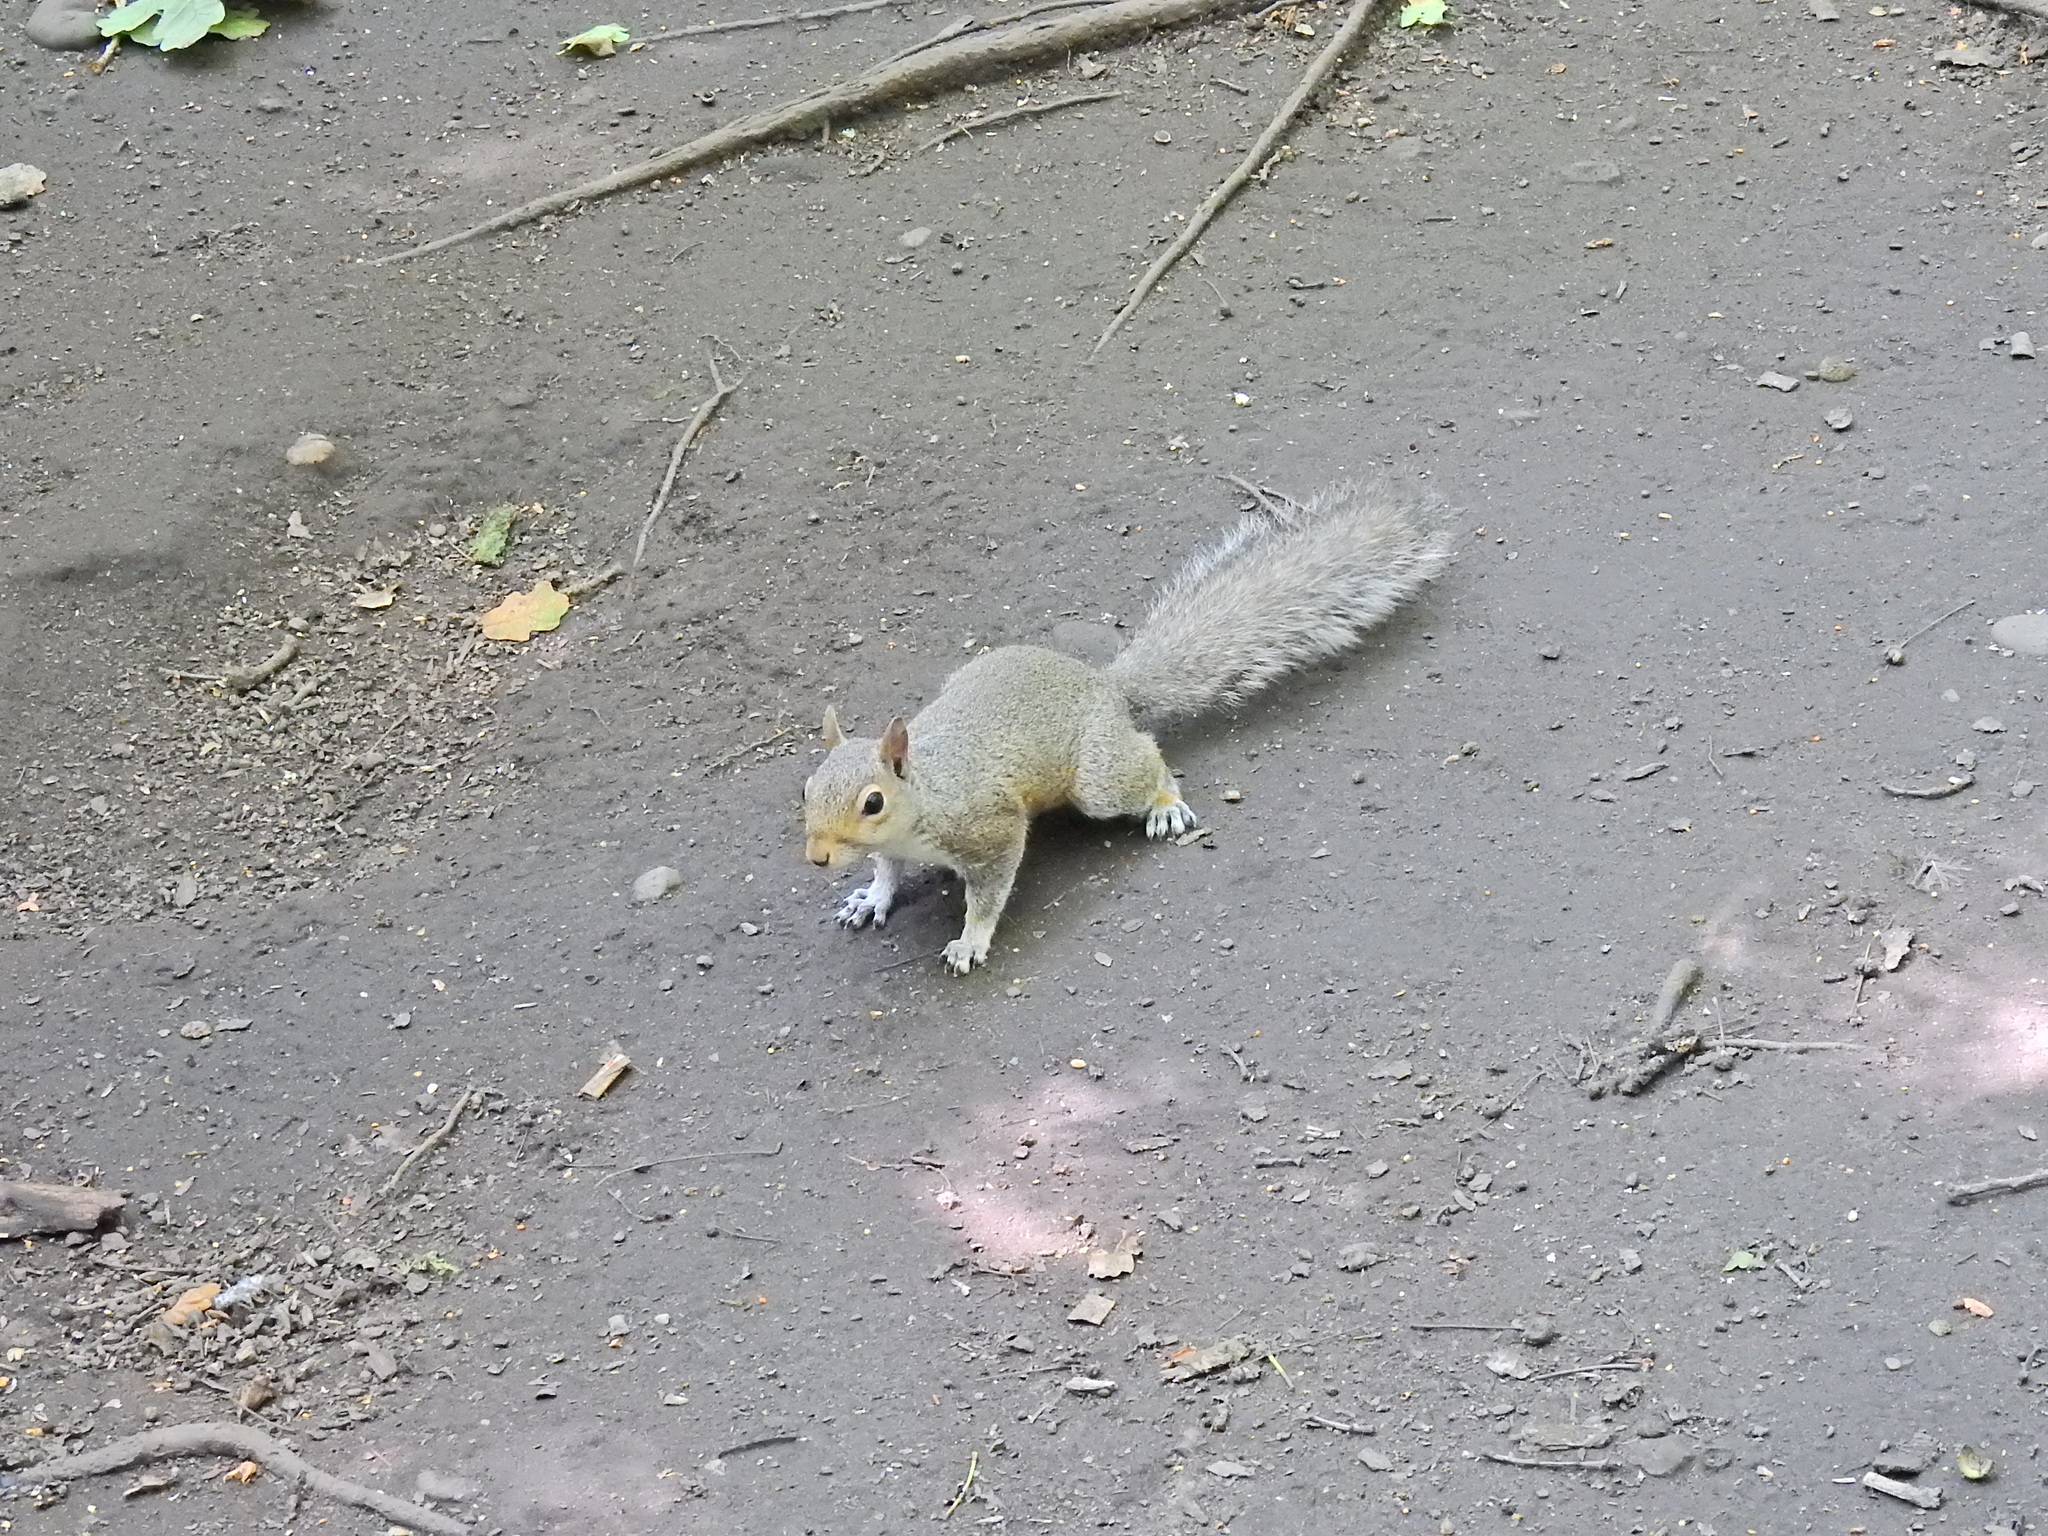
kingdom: Animalia
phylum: Chordata
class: Mammalia
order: Rodentia
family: Sciuridae
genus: Sciurus
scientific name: Sciurus carolinensis
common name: Eastern gray squirrel
